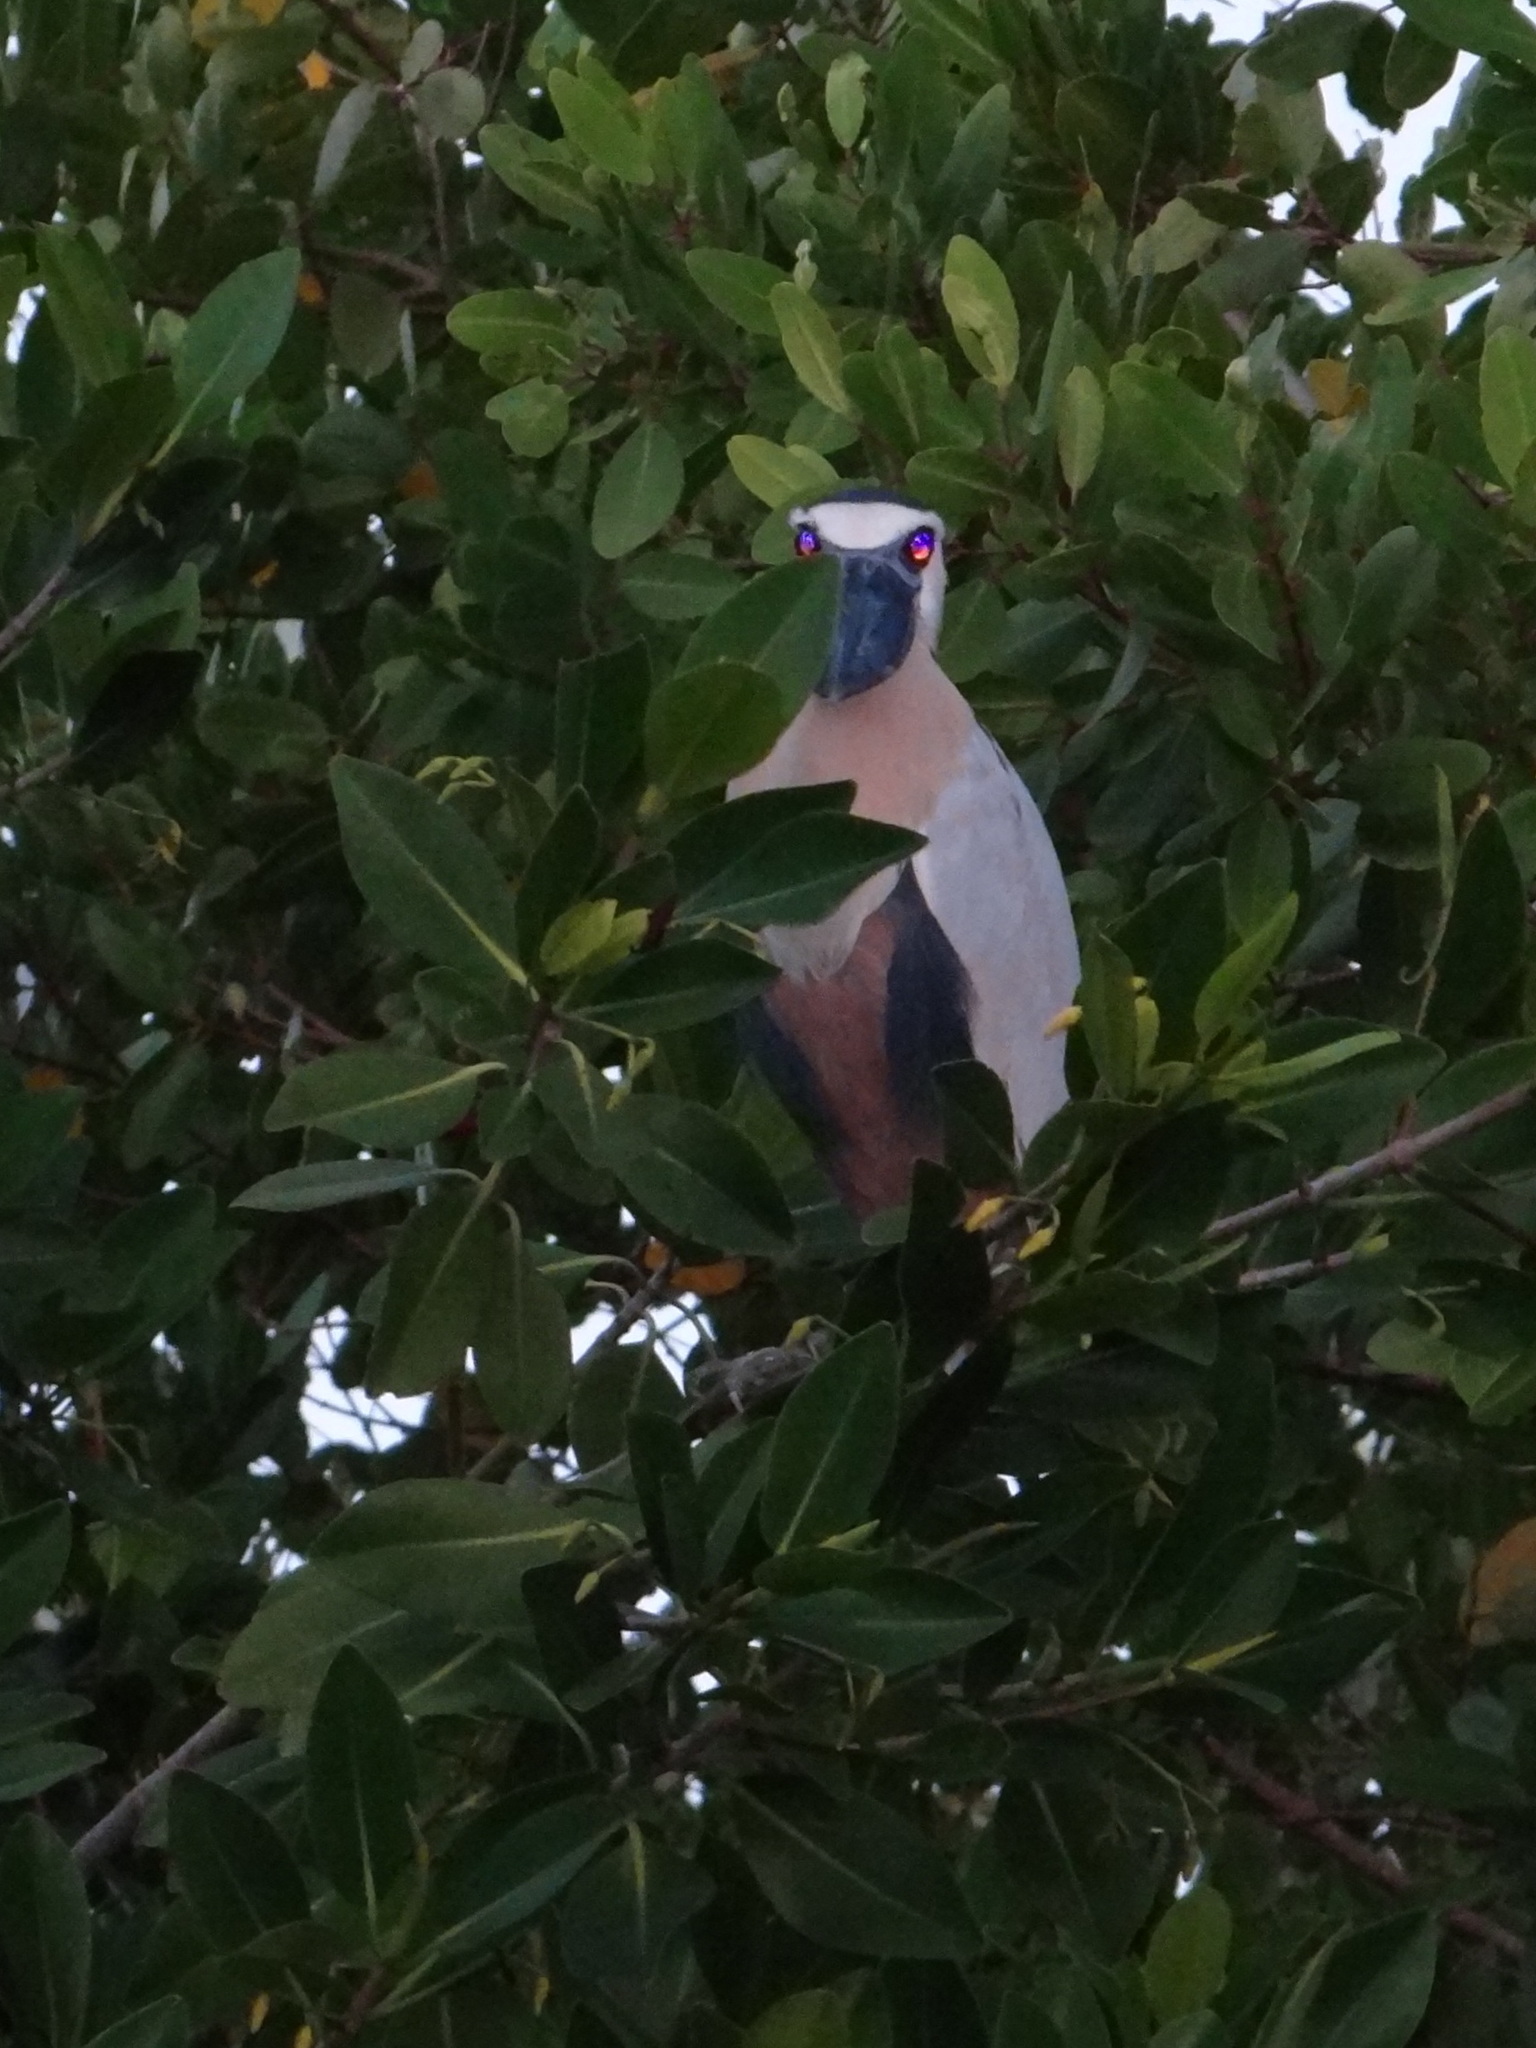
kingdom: Animalia
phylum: Chordata
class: Aves
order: Pelecaniformes
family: Ardeidae
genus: Cochlearius
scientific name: Cochlearius cochlearius
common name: Boat-billed heron
